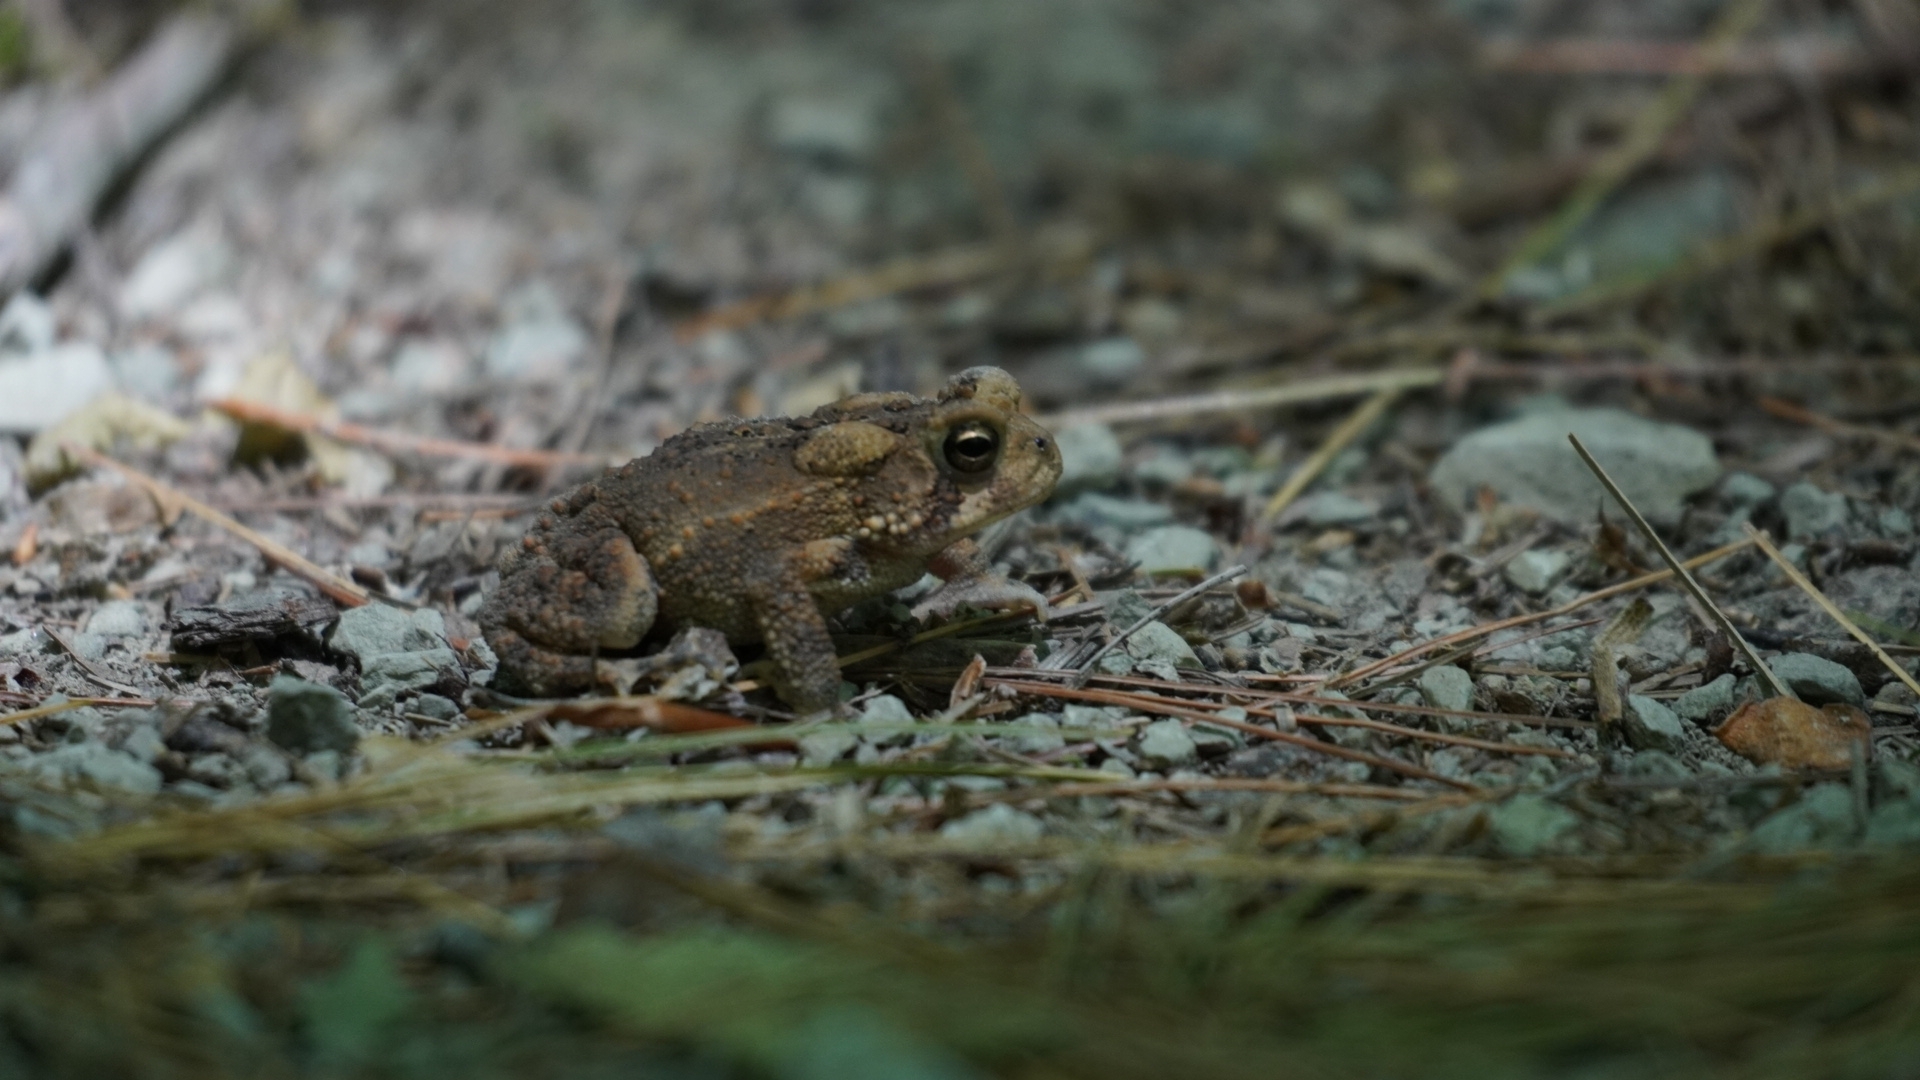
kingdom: Animalia
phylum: Chordata
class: Amphibia
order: Anura
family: Bufonidae
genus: Anaxyrus
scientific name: Anaxyrus americanus
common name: American toad
